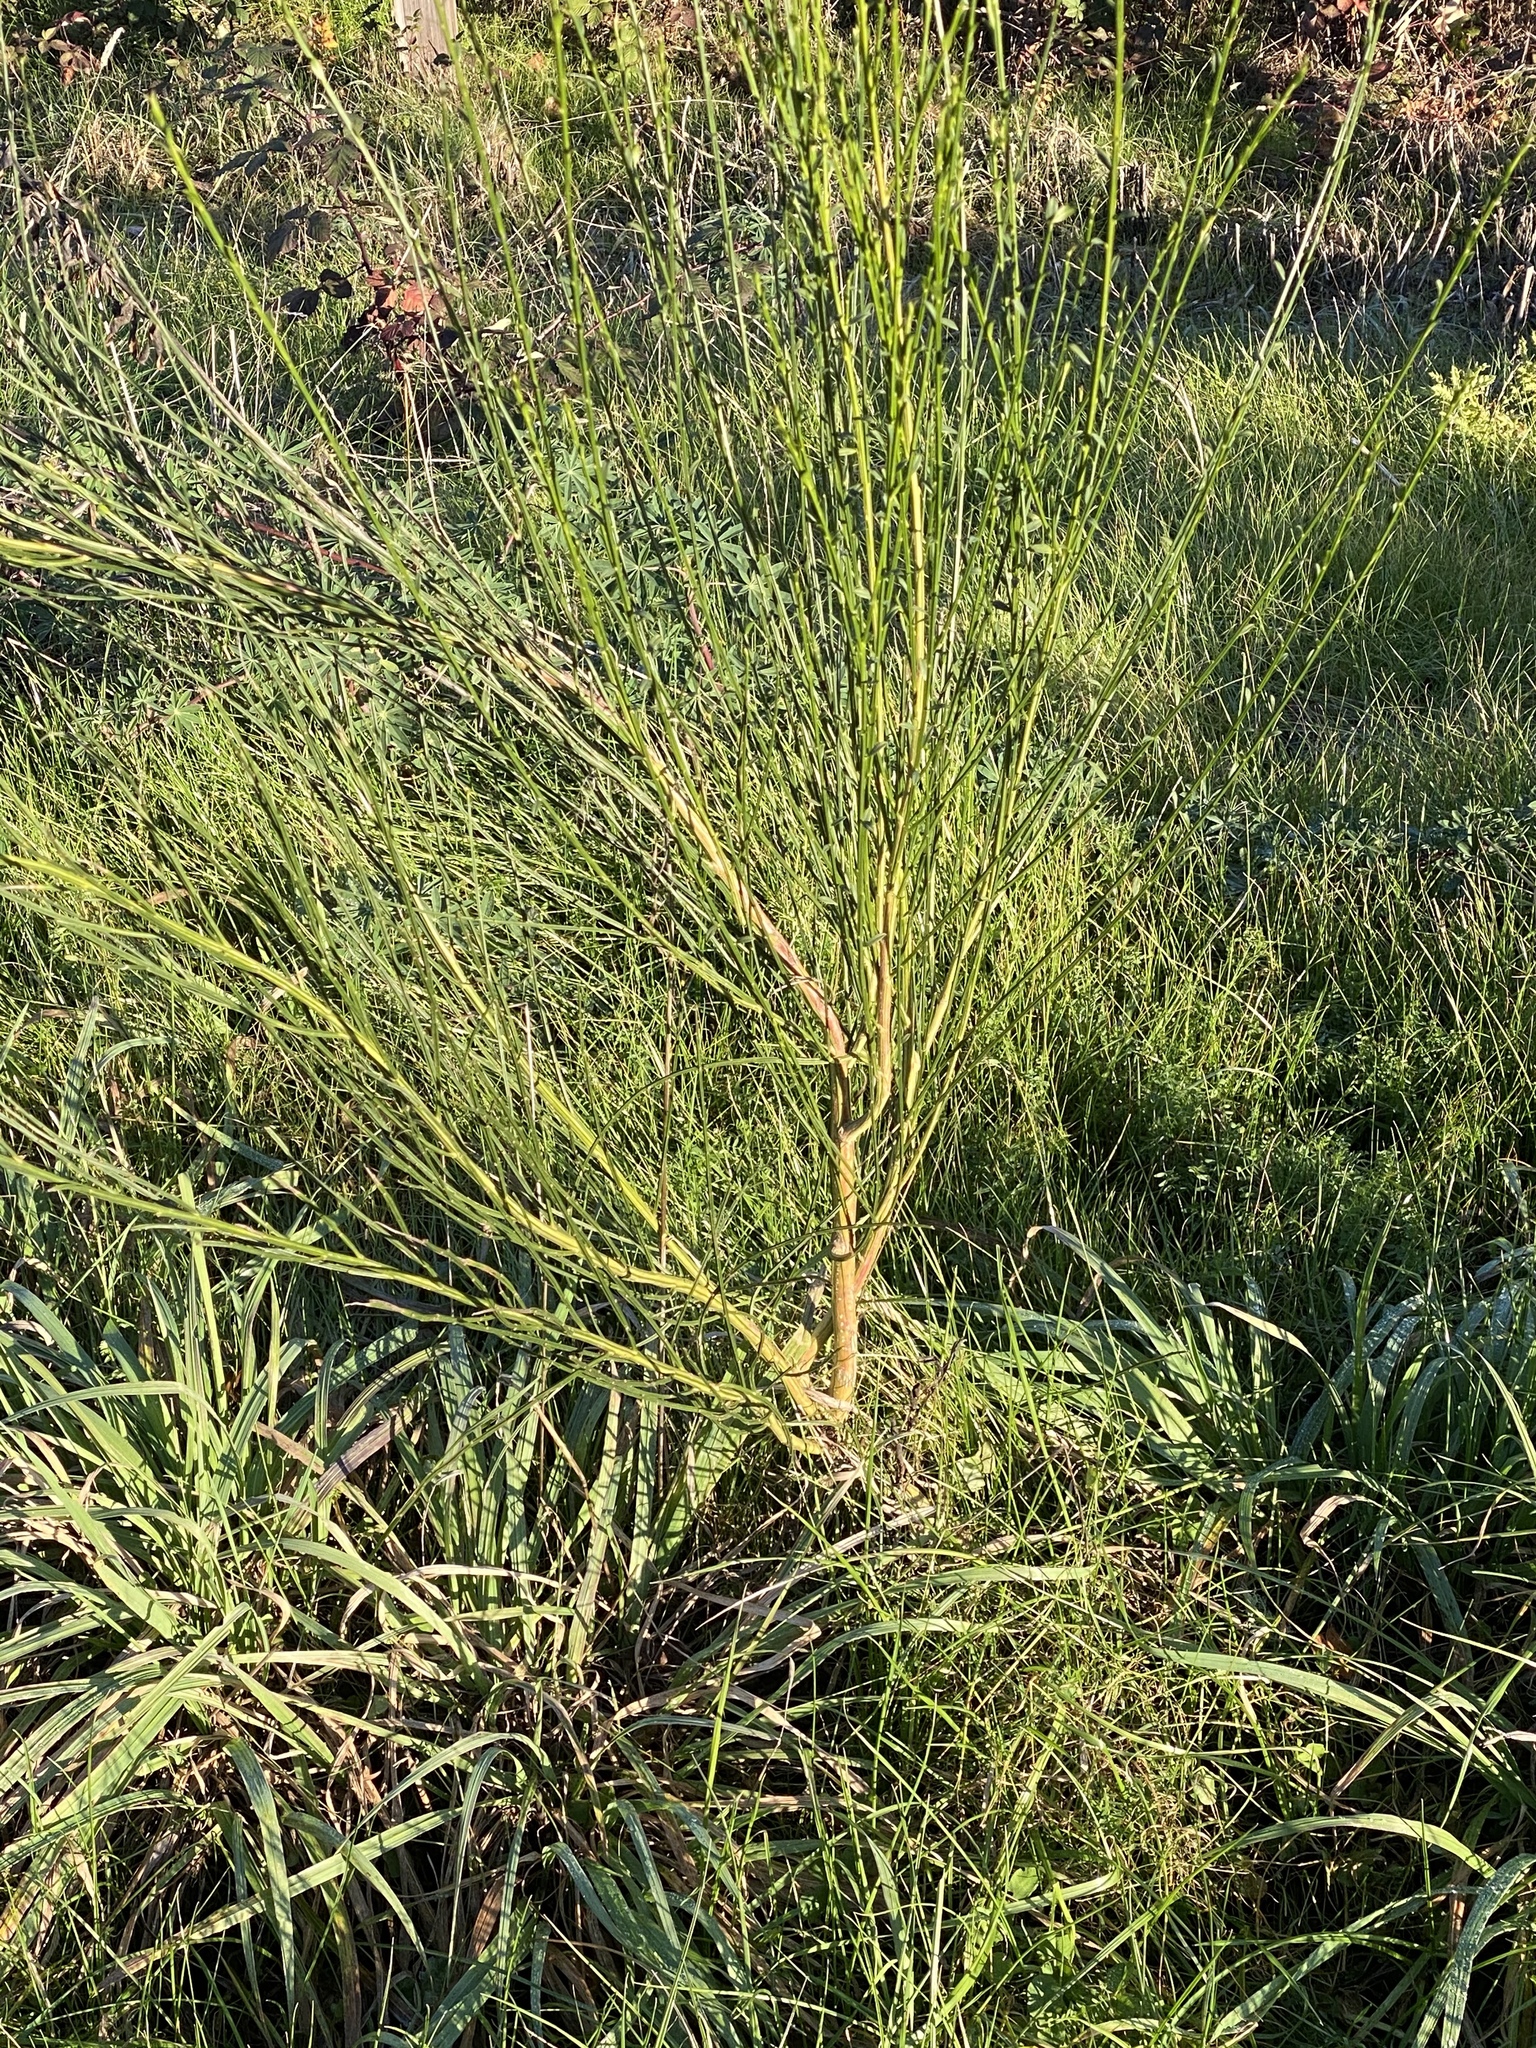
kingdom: Plantae
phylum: Tracheophyta
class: Magnoliopsida
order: Fabales
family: Fabaceae
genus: Cytisus
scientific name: Cytisus scoparius
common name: Scotch broom
